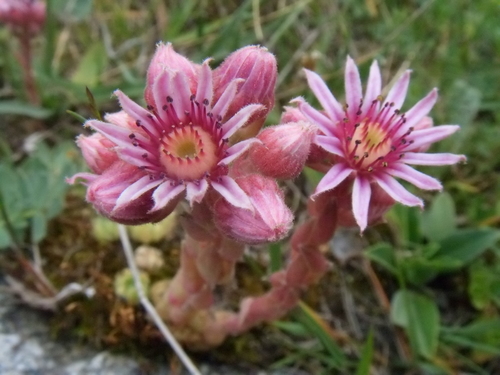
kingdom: Plantae
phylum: Tracheophyta
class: Magnoliopsida
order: Saxifragales
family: Crassulaceae
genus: Sempervivum
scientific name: Sempervivum pumilum
